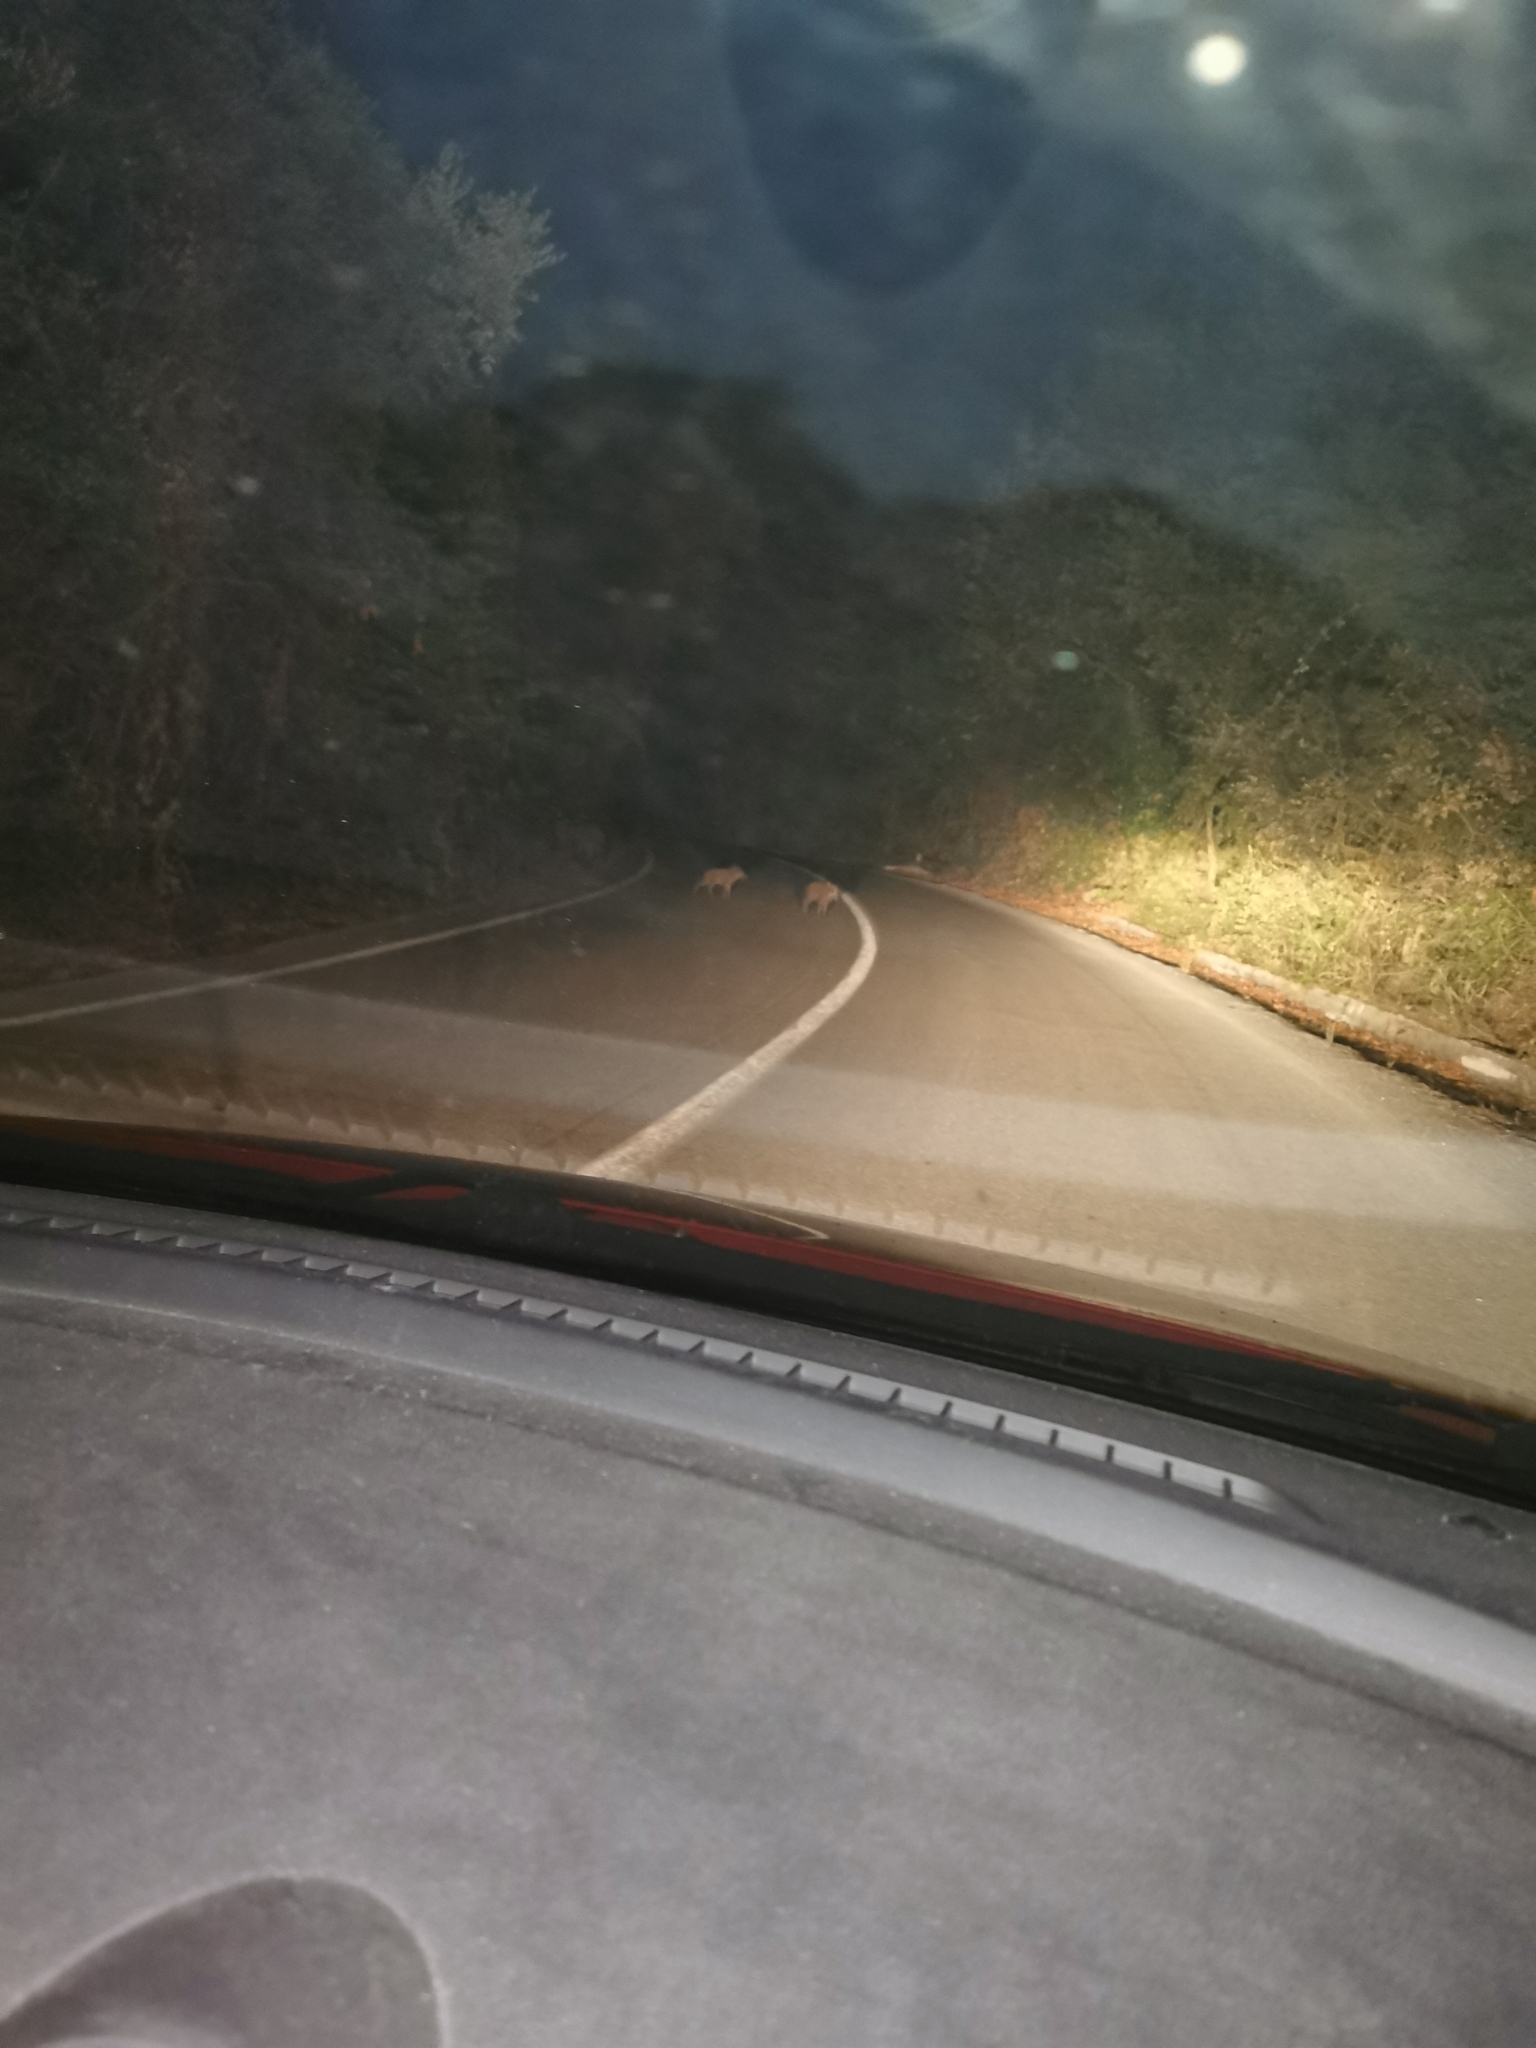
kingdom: Animalia
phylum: Chordata
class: Mammalia
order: Artiodactyla
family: Suidae
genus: Sus
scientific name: Sus scrofa
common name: Wild boar
